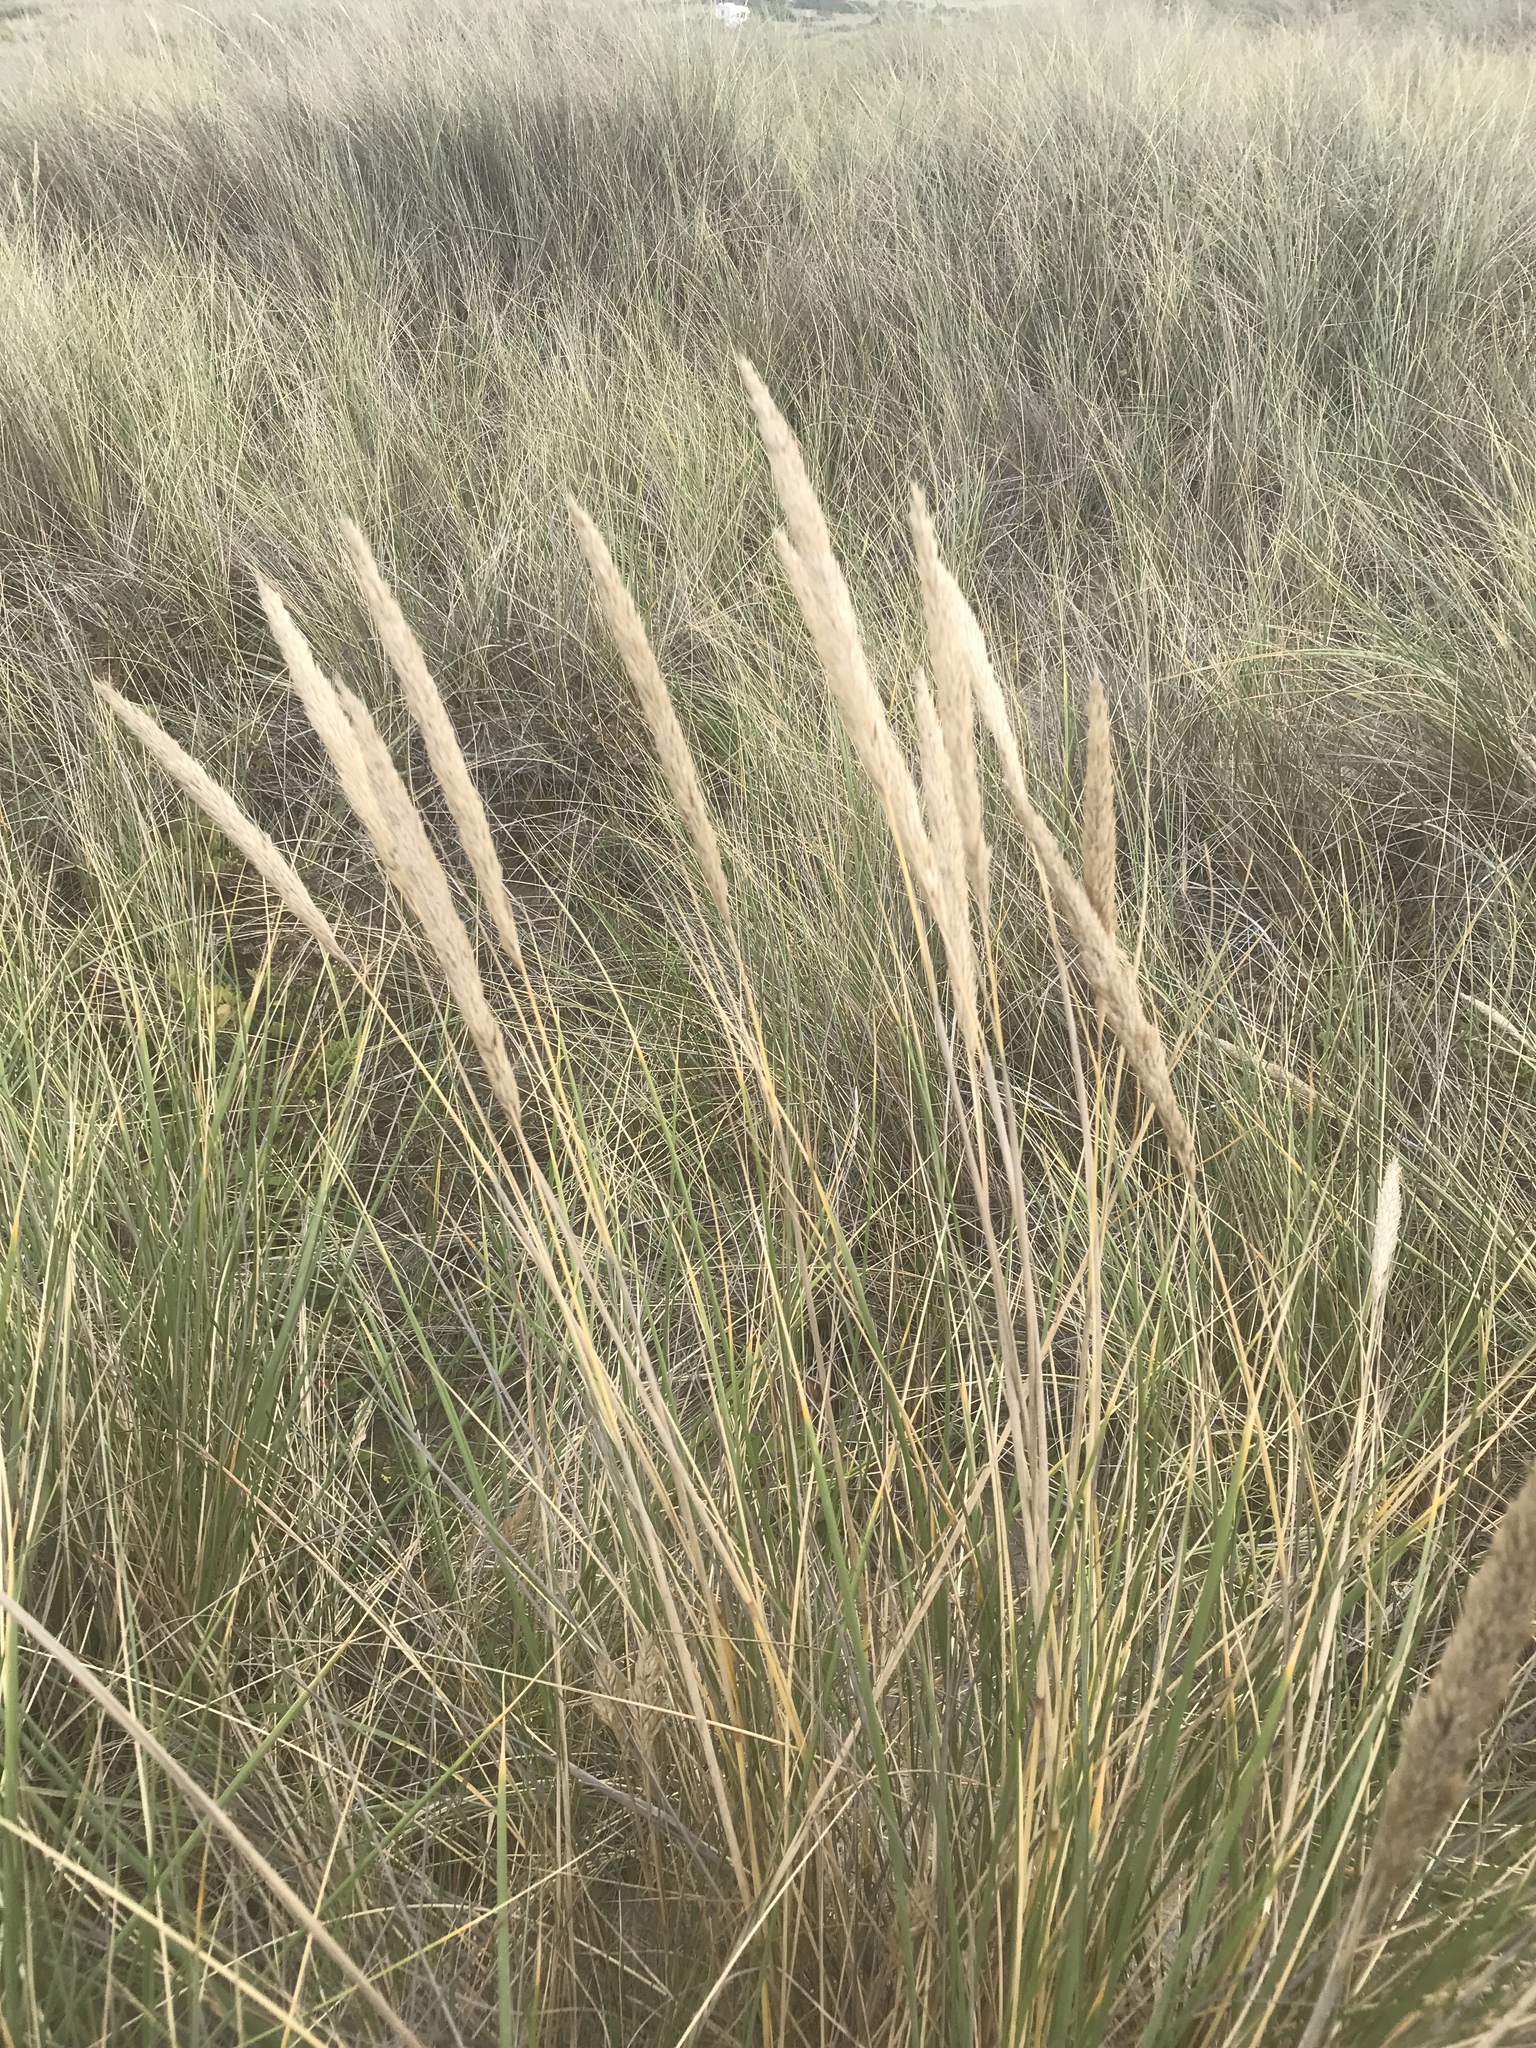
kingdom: Plantae
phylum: Tracheophyta
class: Liliopsida
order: Poales
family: Poaceae
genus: Calamagrostis
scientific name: Calamagrostis arenaria
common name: European beachgrass
